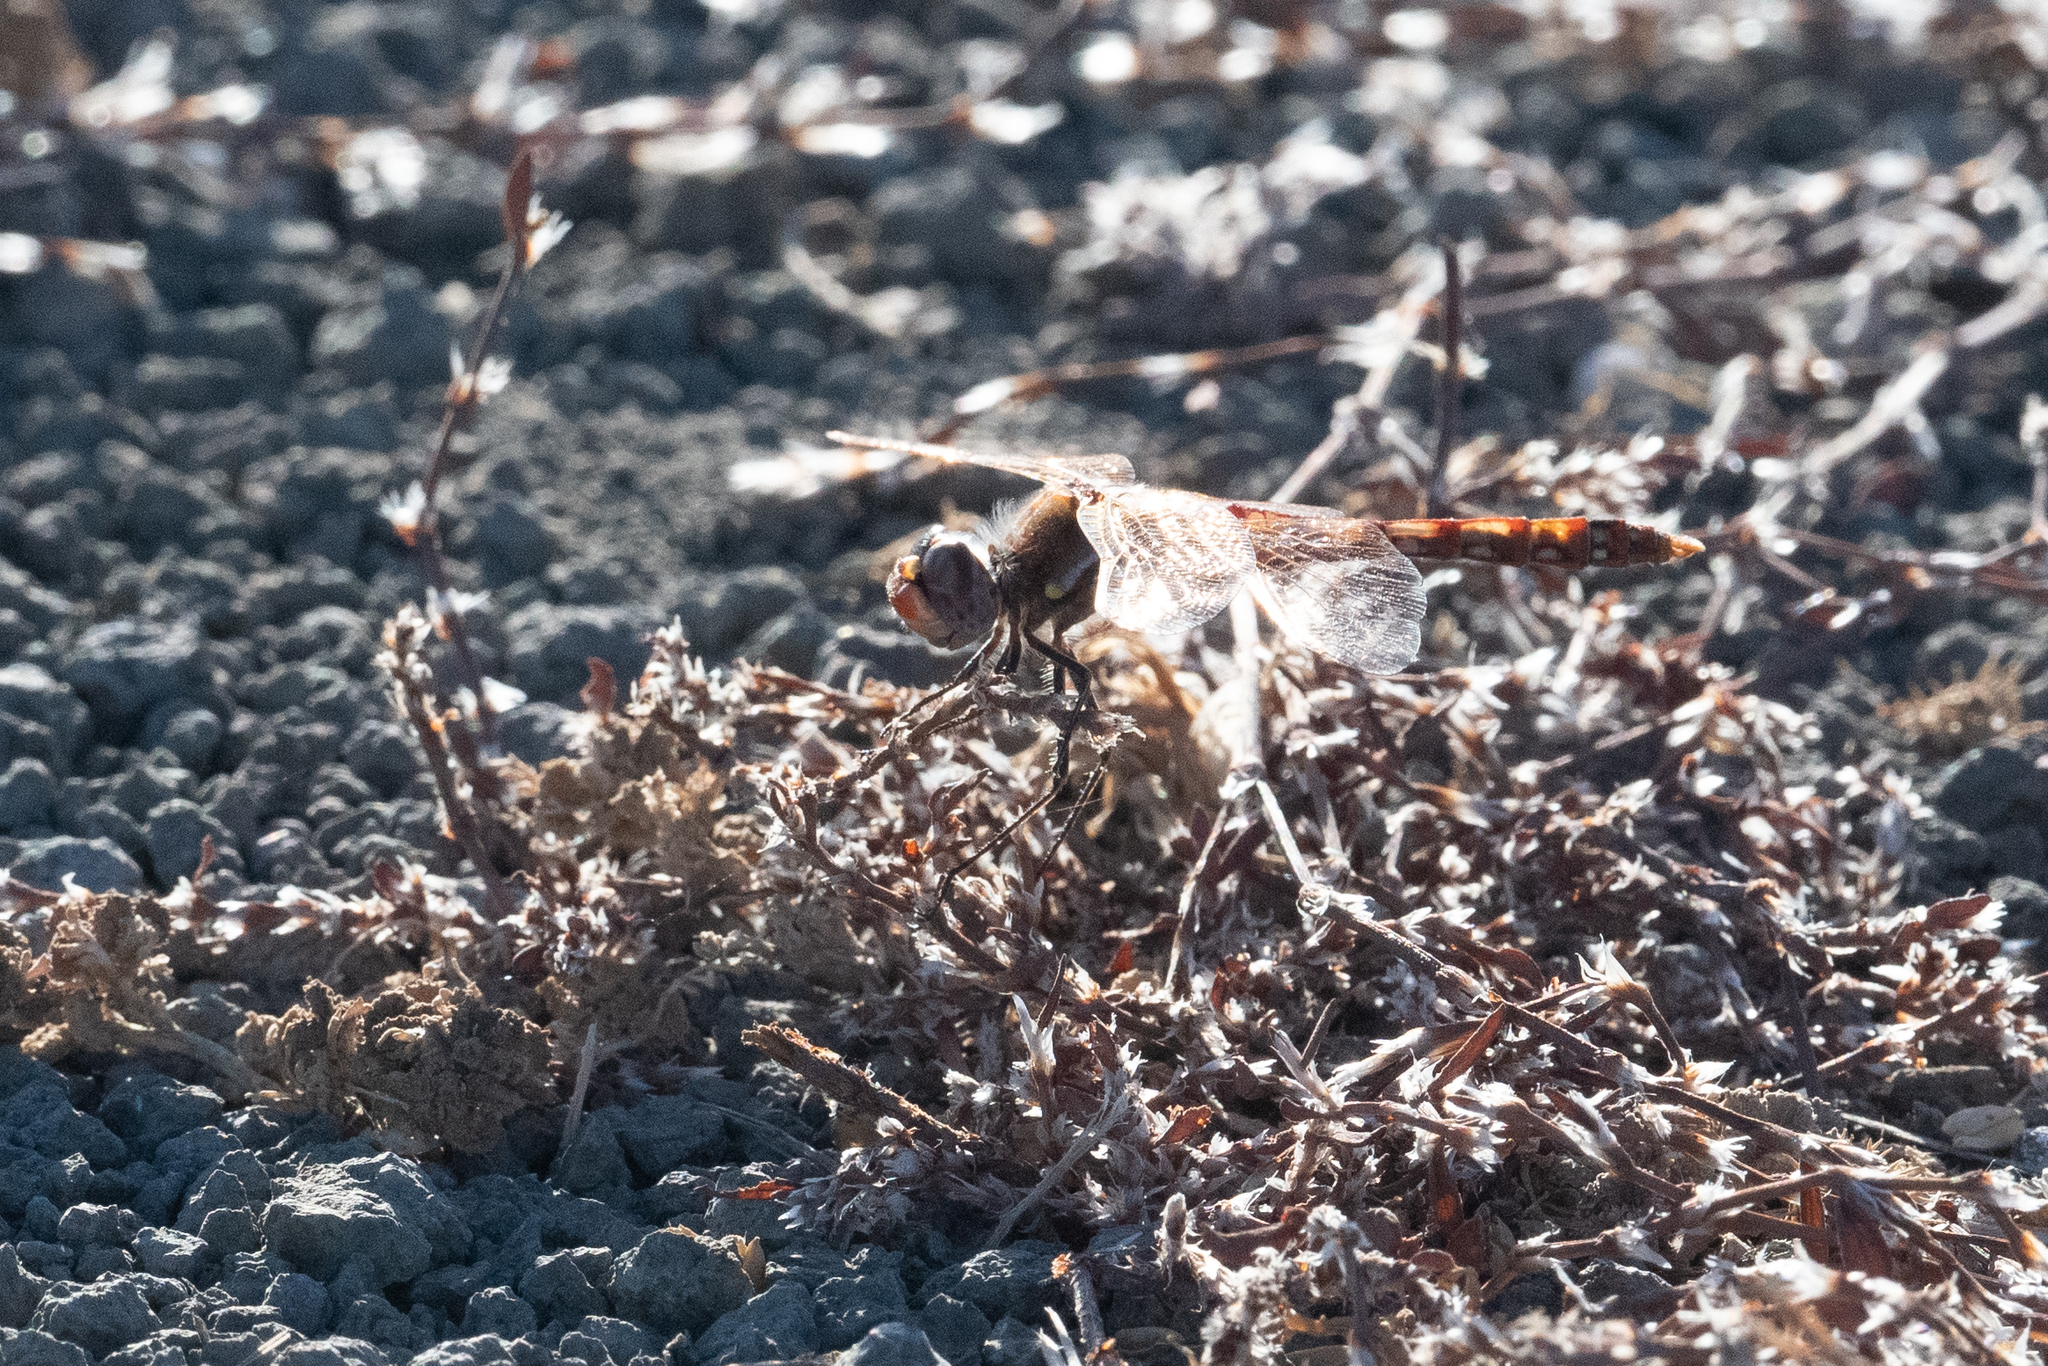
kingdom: Animalia
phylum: Arthropoda
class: Insecta
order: Odonata
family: Libellulidae
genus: Sympetrum
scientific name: Sympetrum corruptum
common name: Variegated meadowhawk
